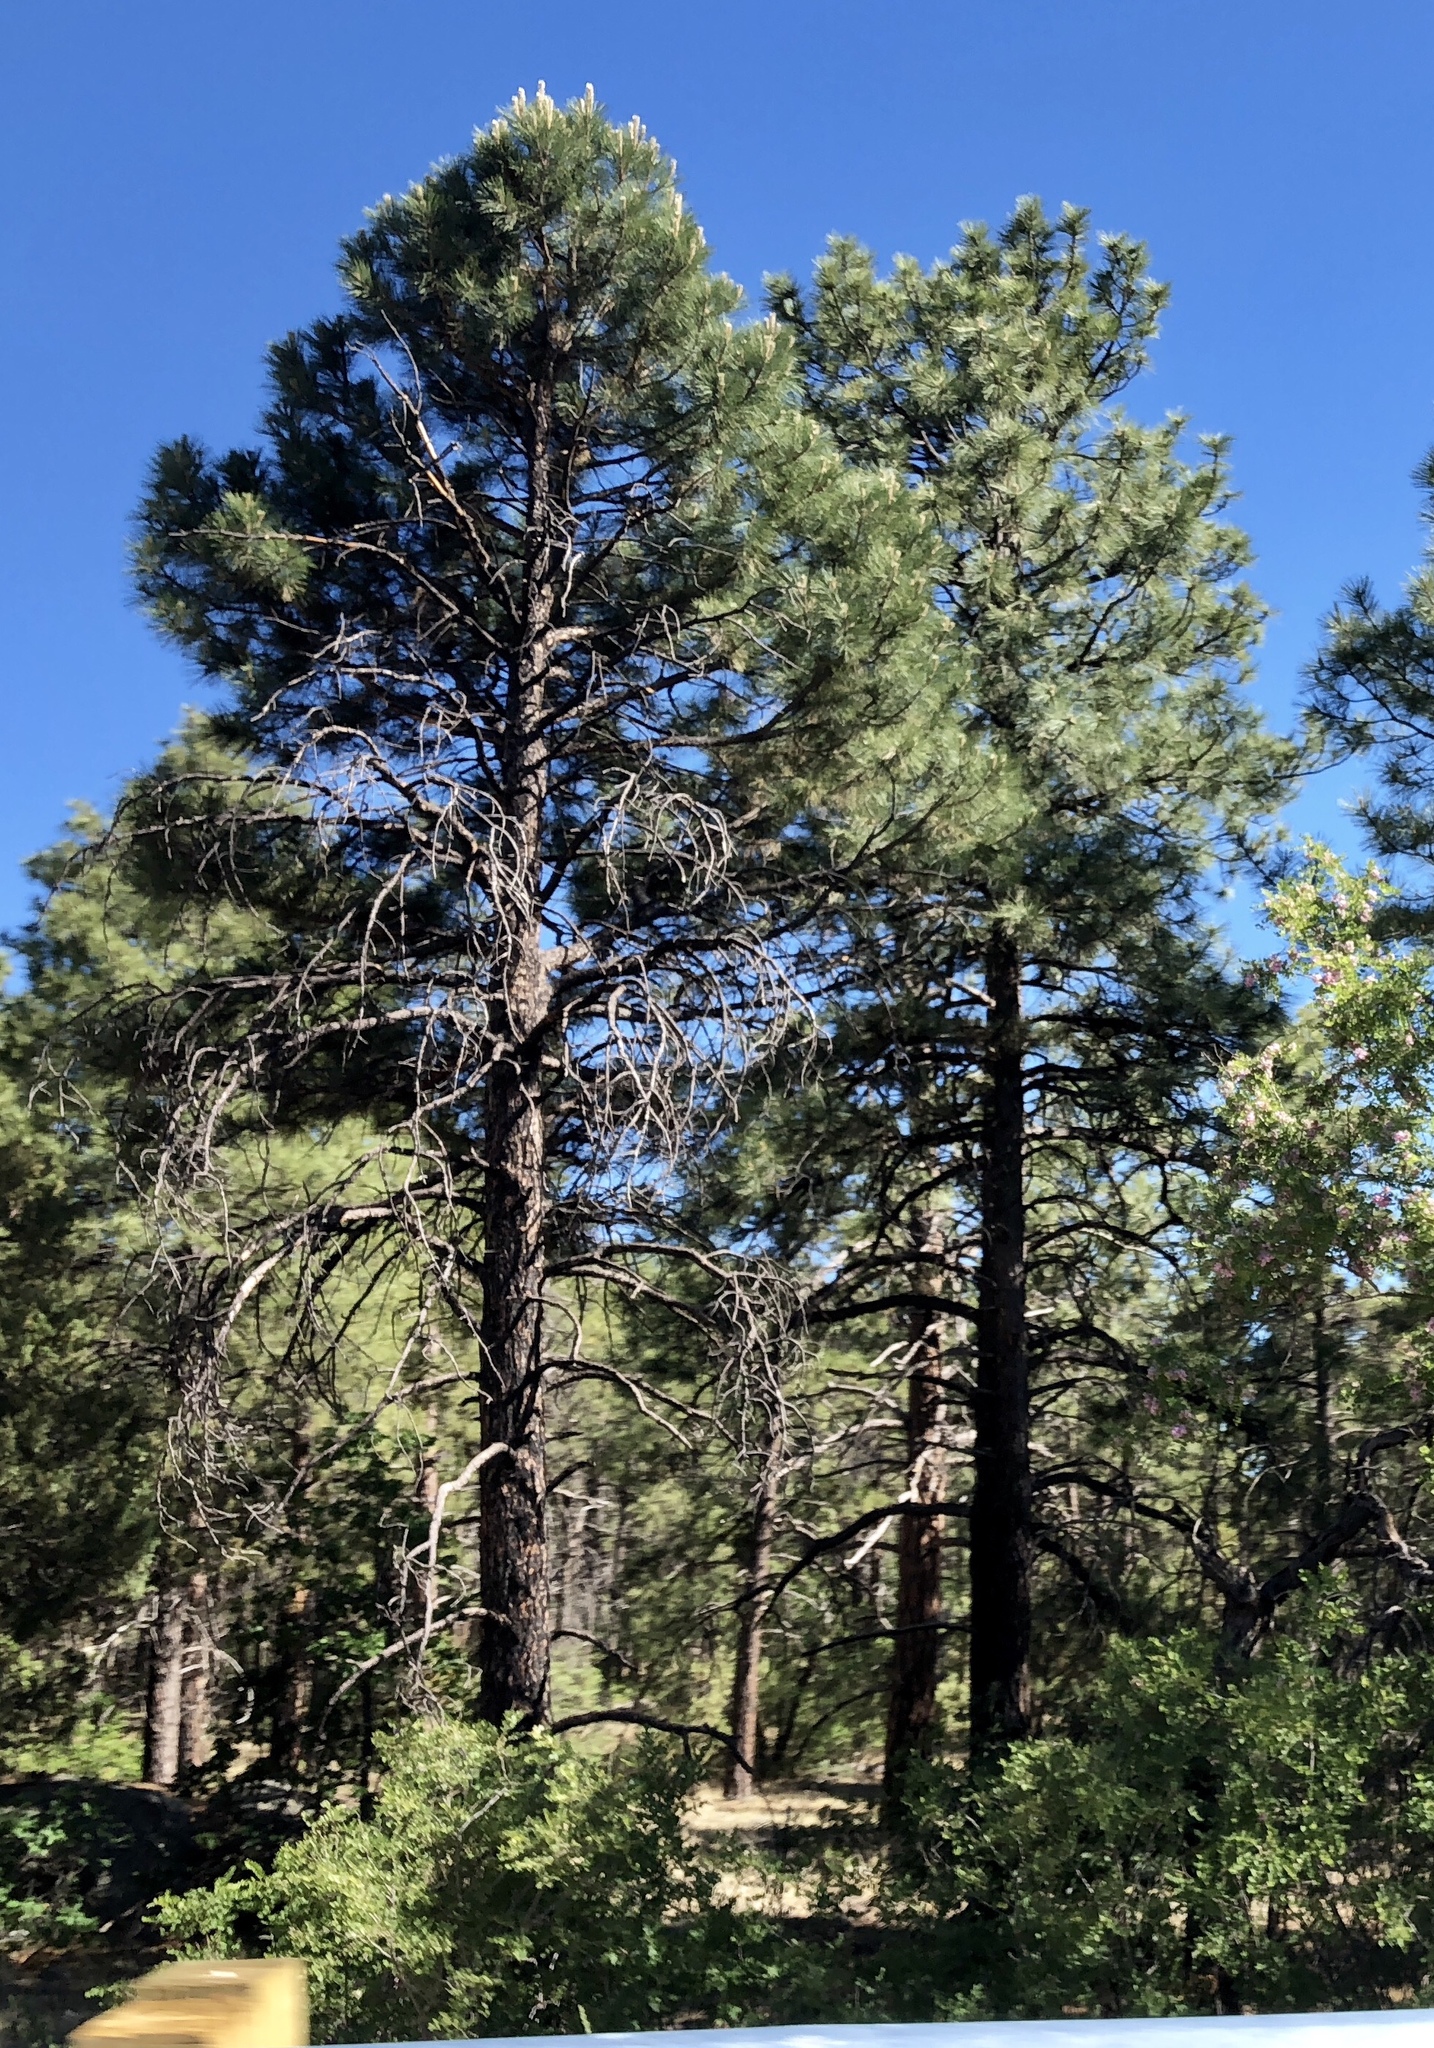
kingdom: Plantae
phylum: Tracheophyta
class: Pinopsida
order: Pinales
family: Pinaceae
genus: Pinus
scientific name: Pinus ponderosa
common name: Western yellow-pine
